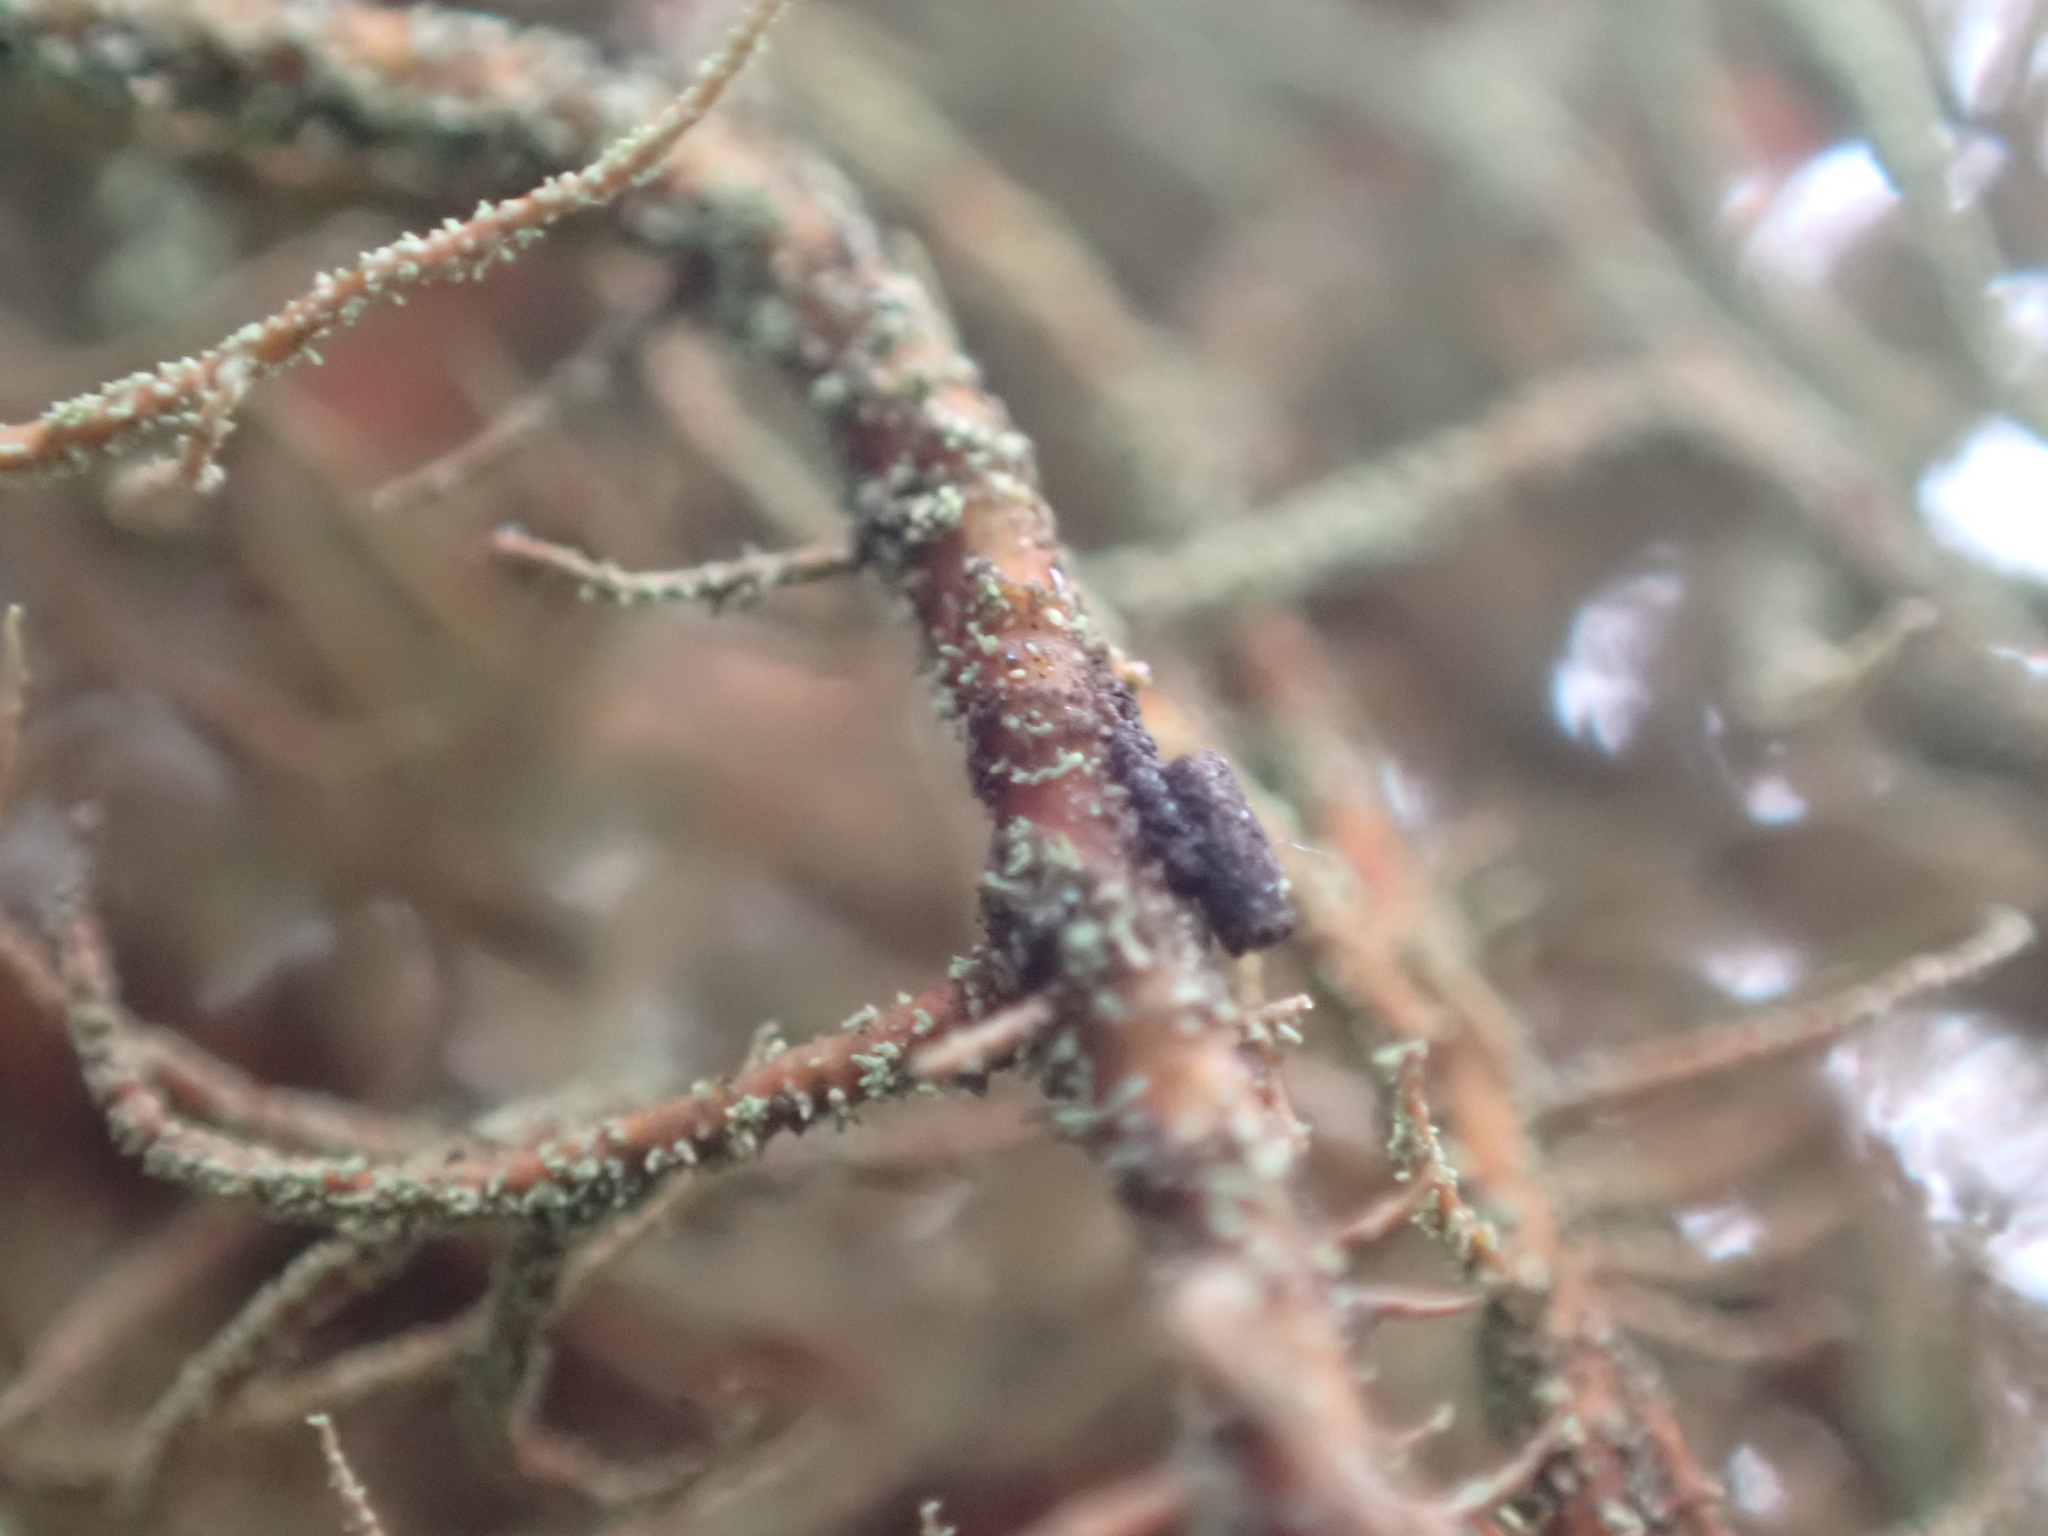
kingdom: Fungi
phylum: Ascomycota
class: Lecanoromycetes
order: Lecanorales
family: Parmeliaceae
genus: Usnea
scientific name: Usnea rubicunda
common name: Red beard lichen
